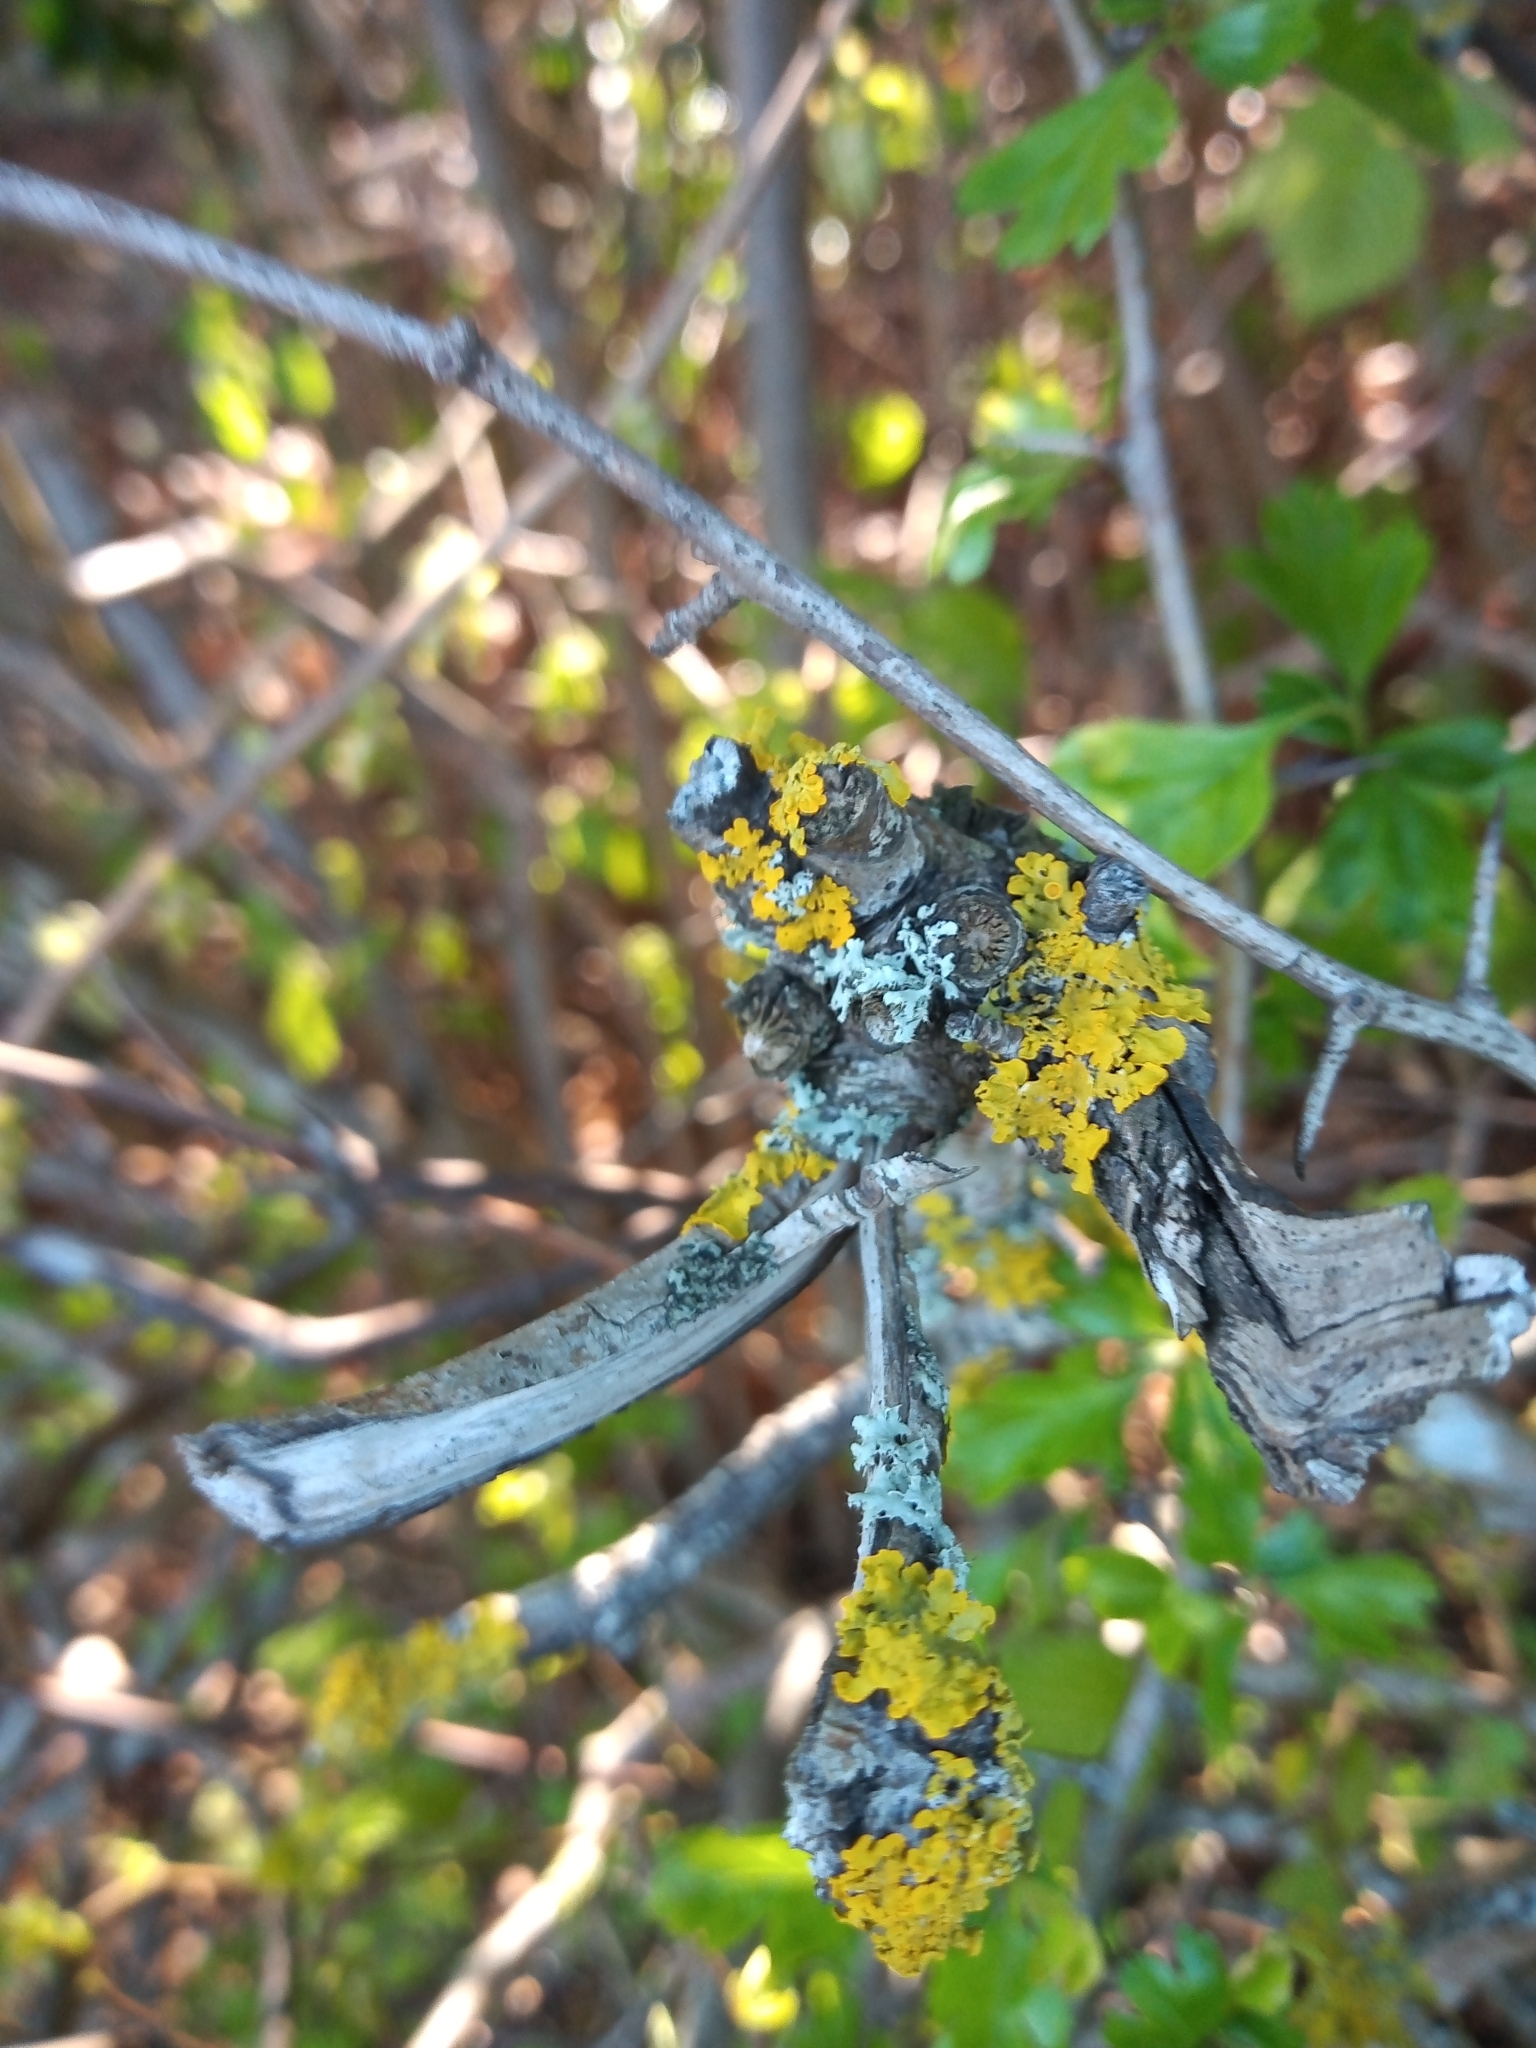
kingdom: Fungi
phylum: Ascomycota
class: Lecanoromycetes
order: Teloschistales
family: Teloschistaceae
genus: Xanthoria
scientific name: Xanthoria parietina
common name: Common orange lichen
